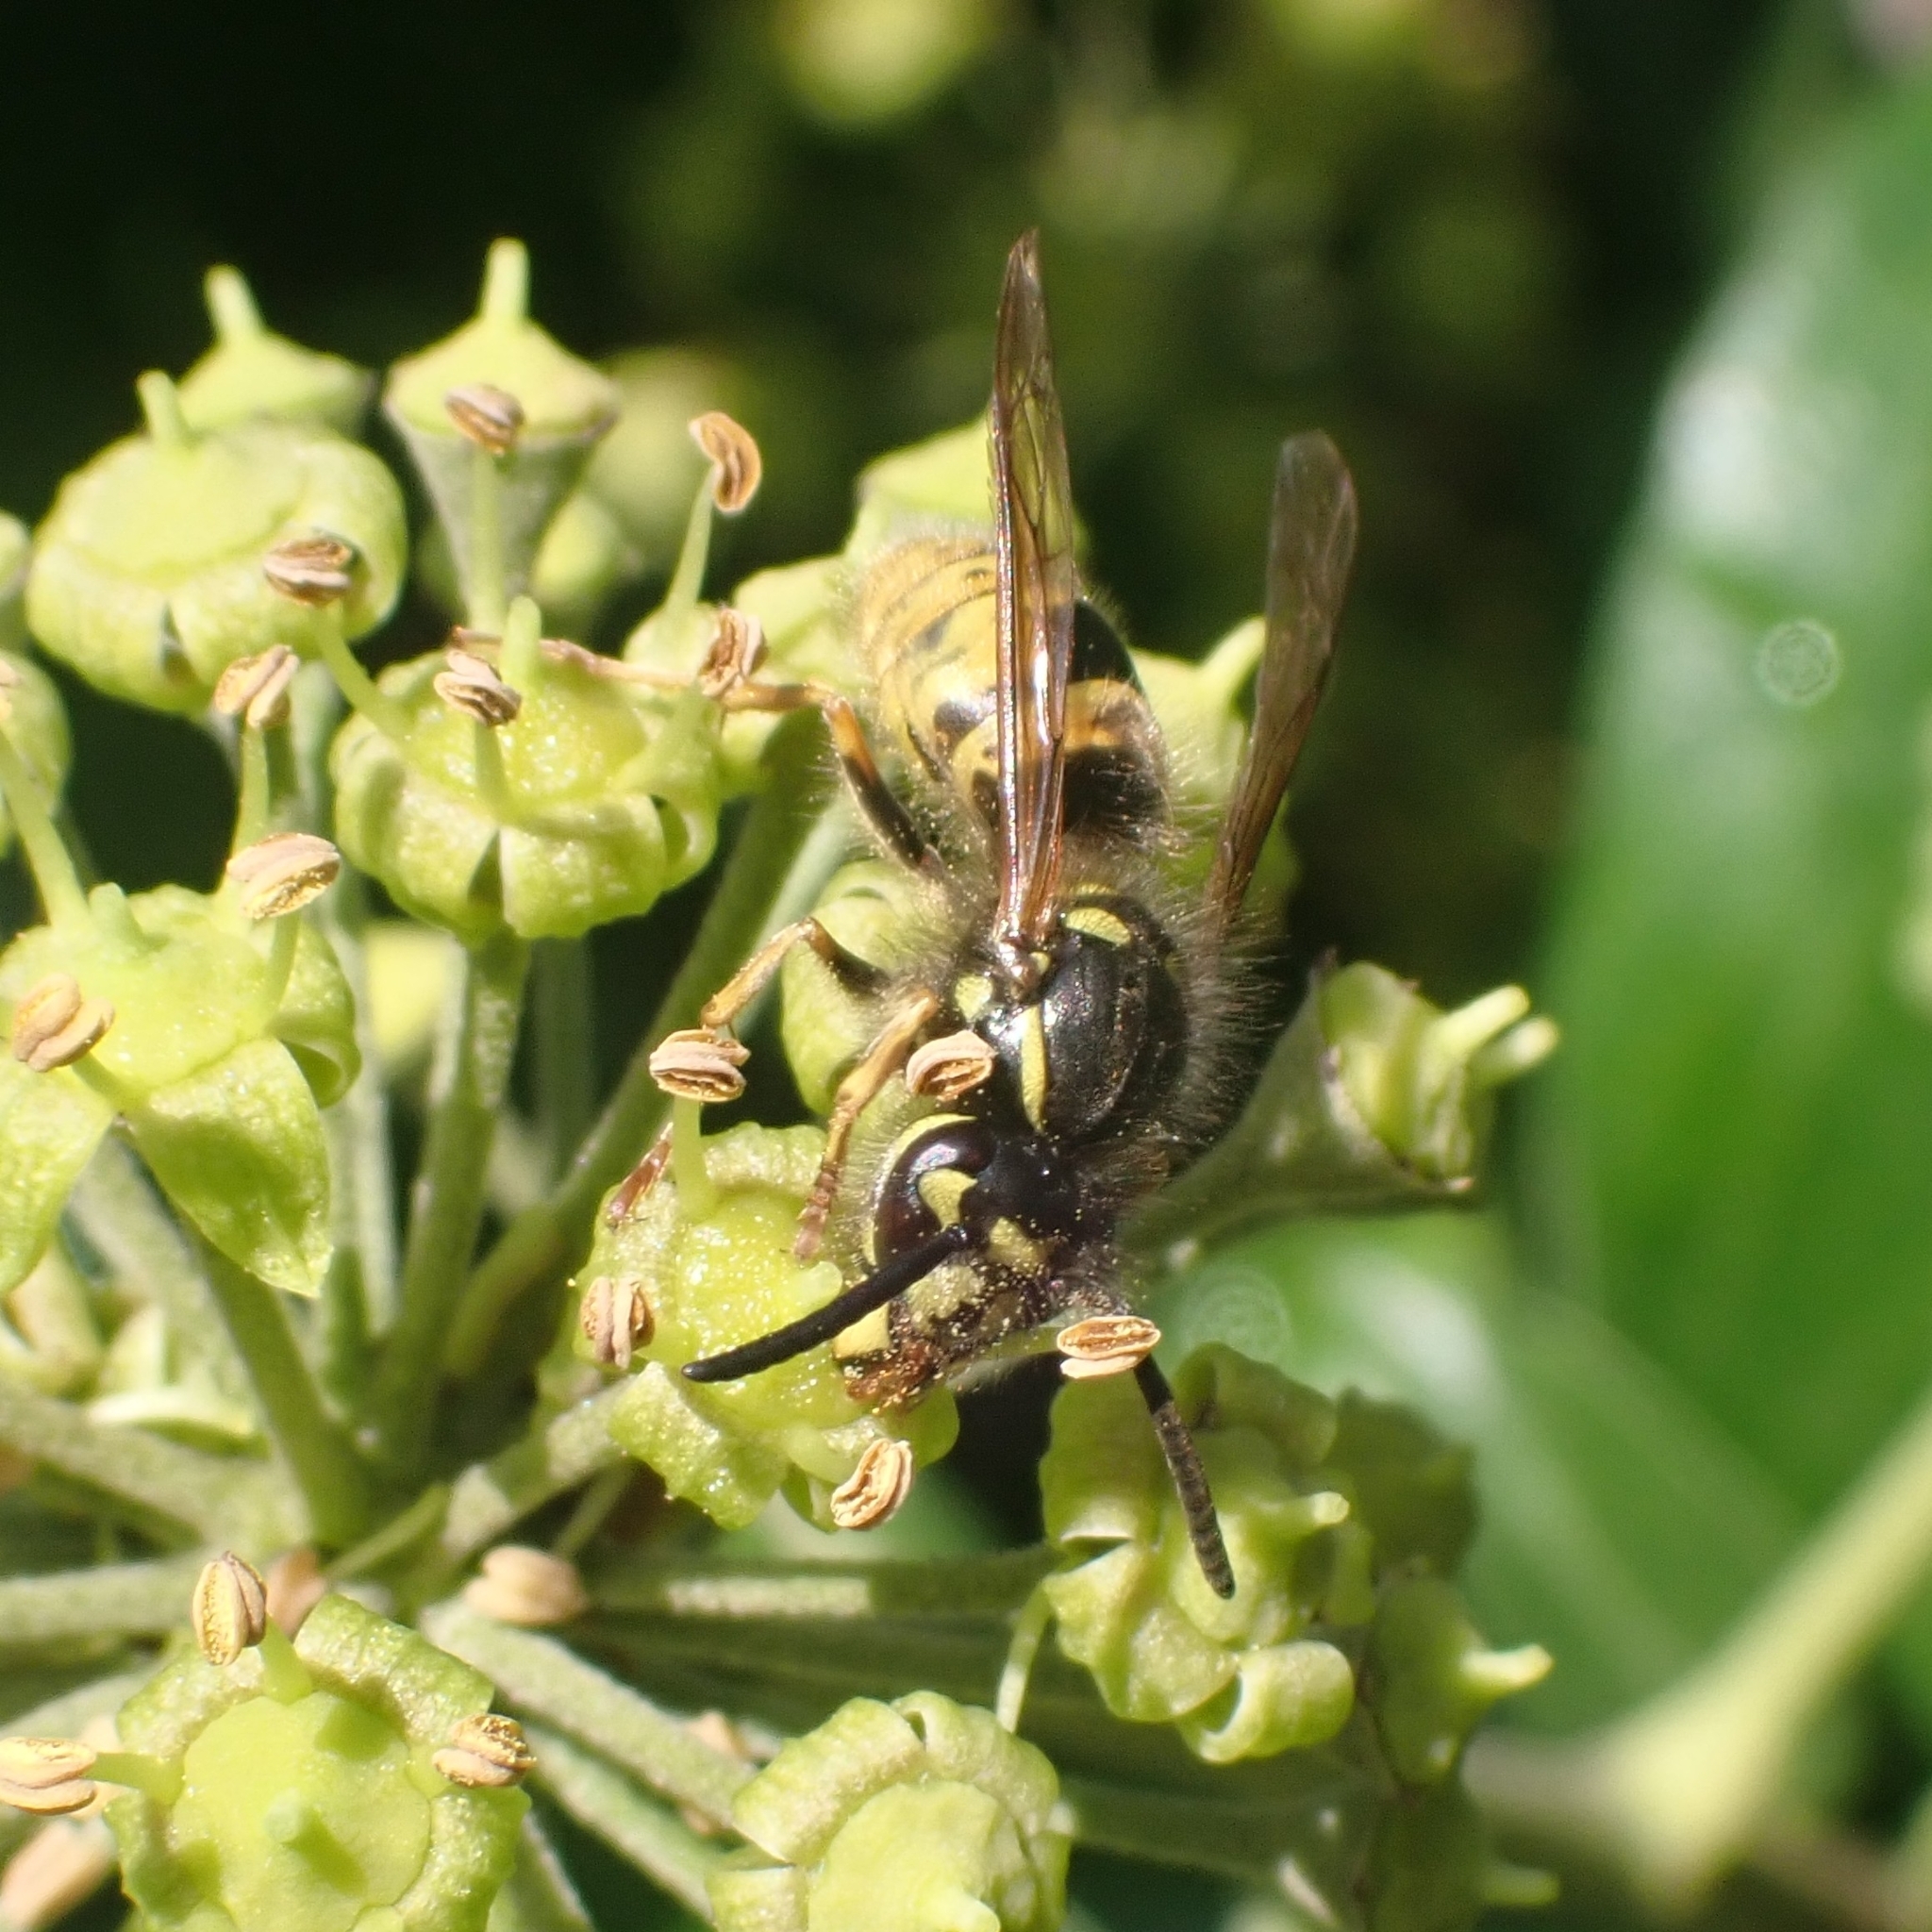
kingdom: Animalia
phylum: Arthropoda
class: Insecta
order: Hymenoptera
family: Vespidae
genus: Vespula
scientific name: Vespula vulgaris
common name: Common wasp
